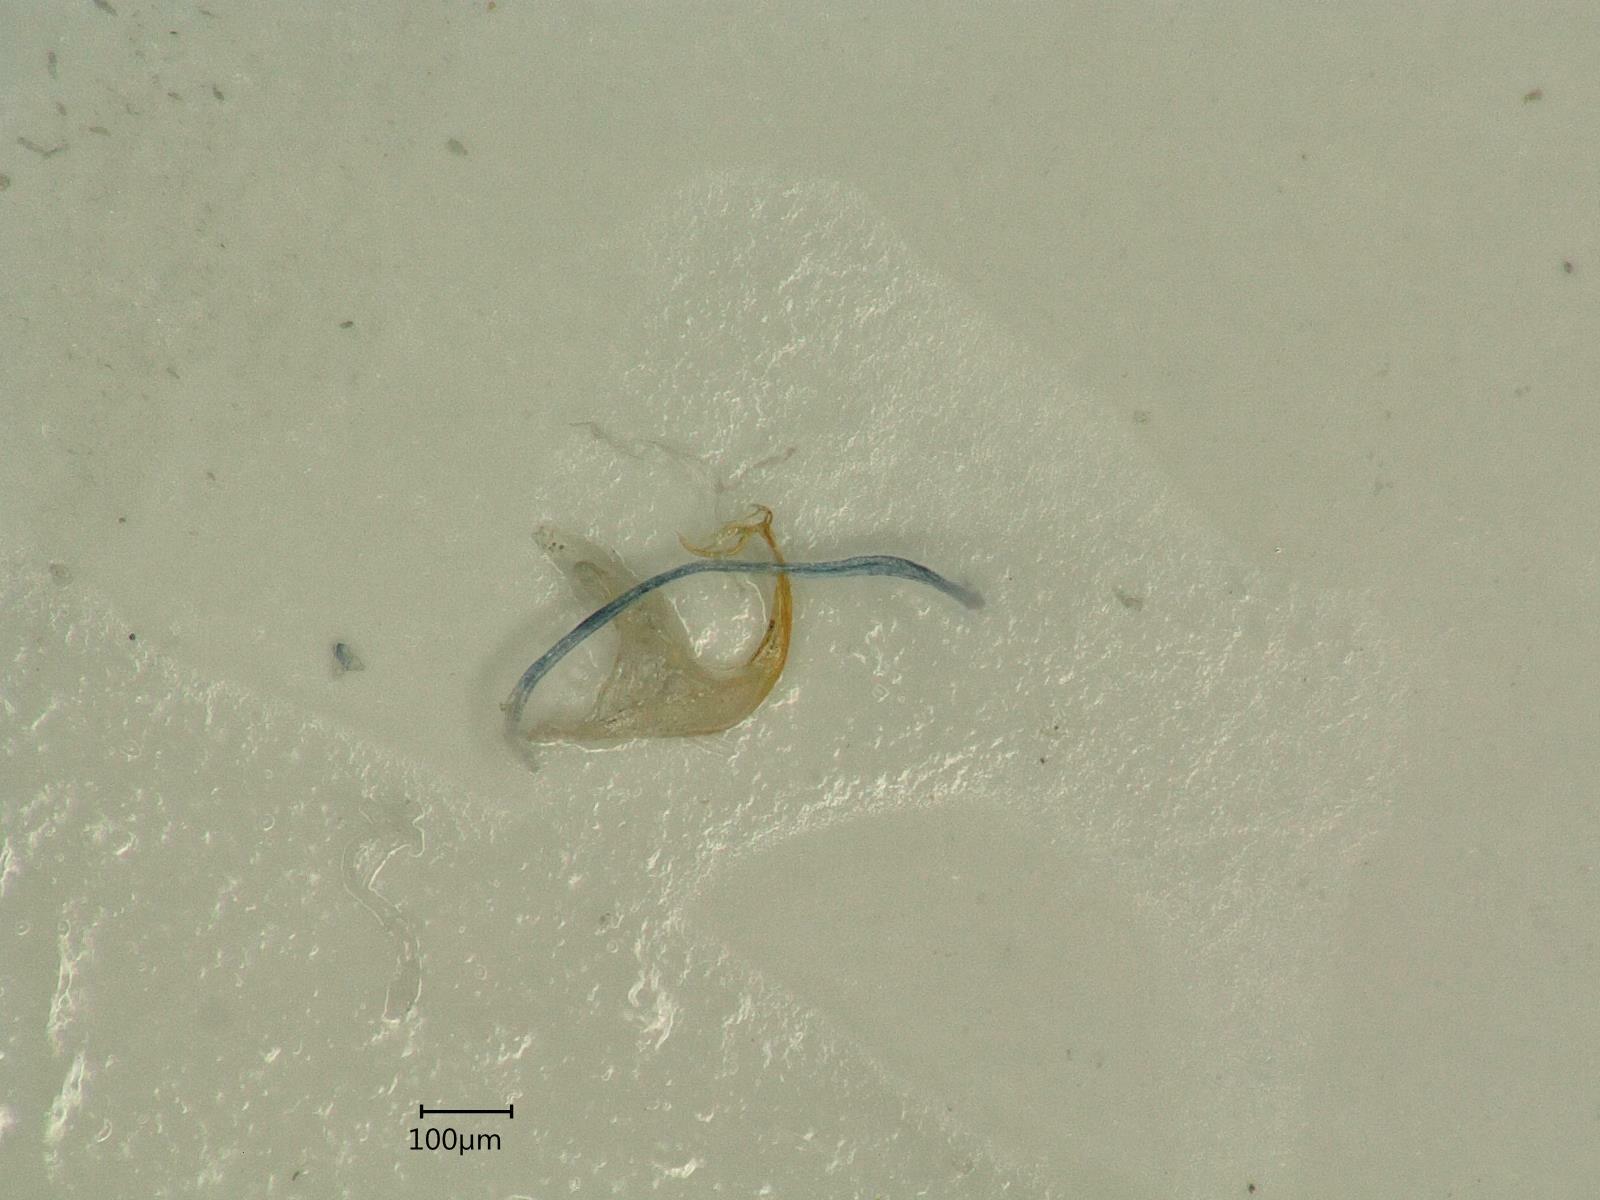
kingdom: Animalia
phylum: Arthropoda
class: Insecta
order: Hemiptera
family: Cicadellidae
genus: Edwardsiana
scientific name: Edwardsiana ulmiphagus
